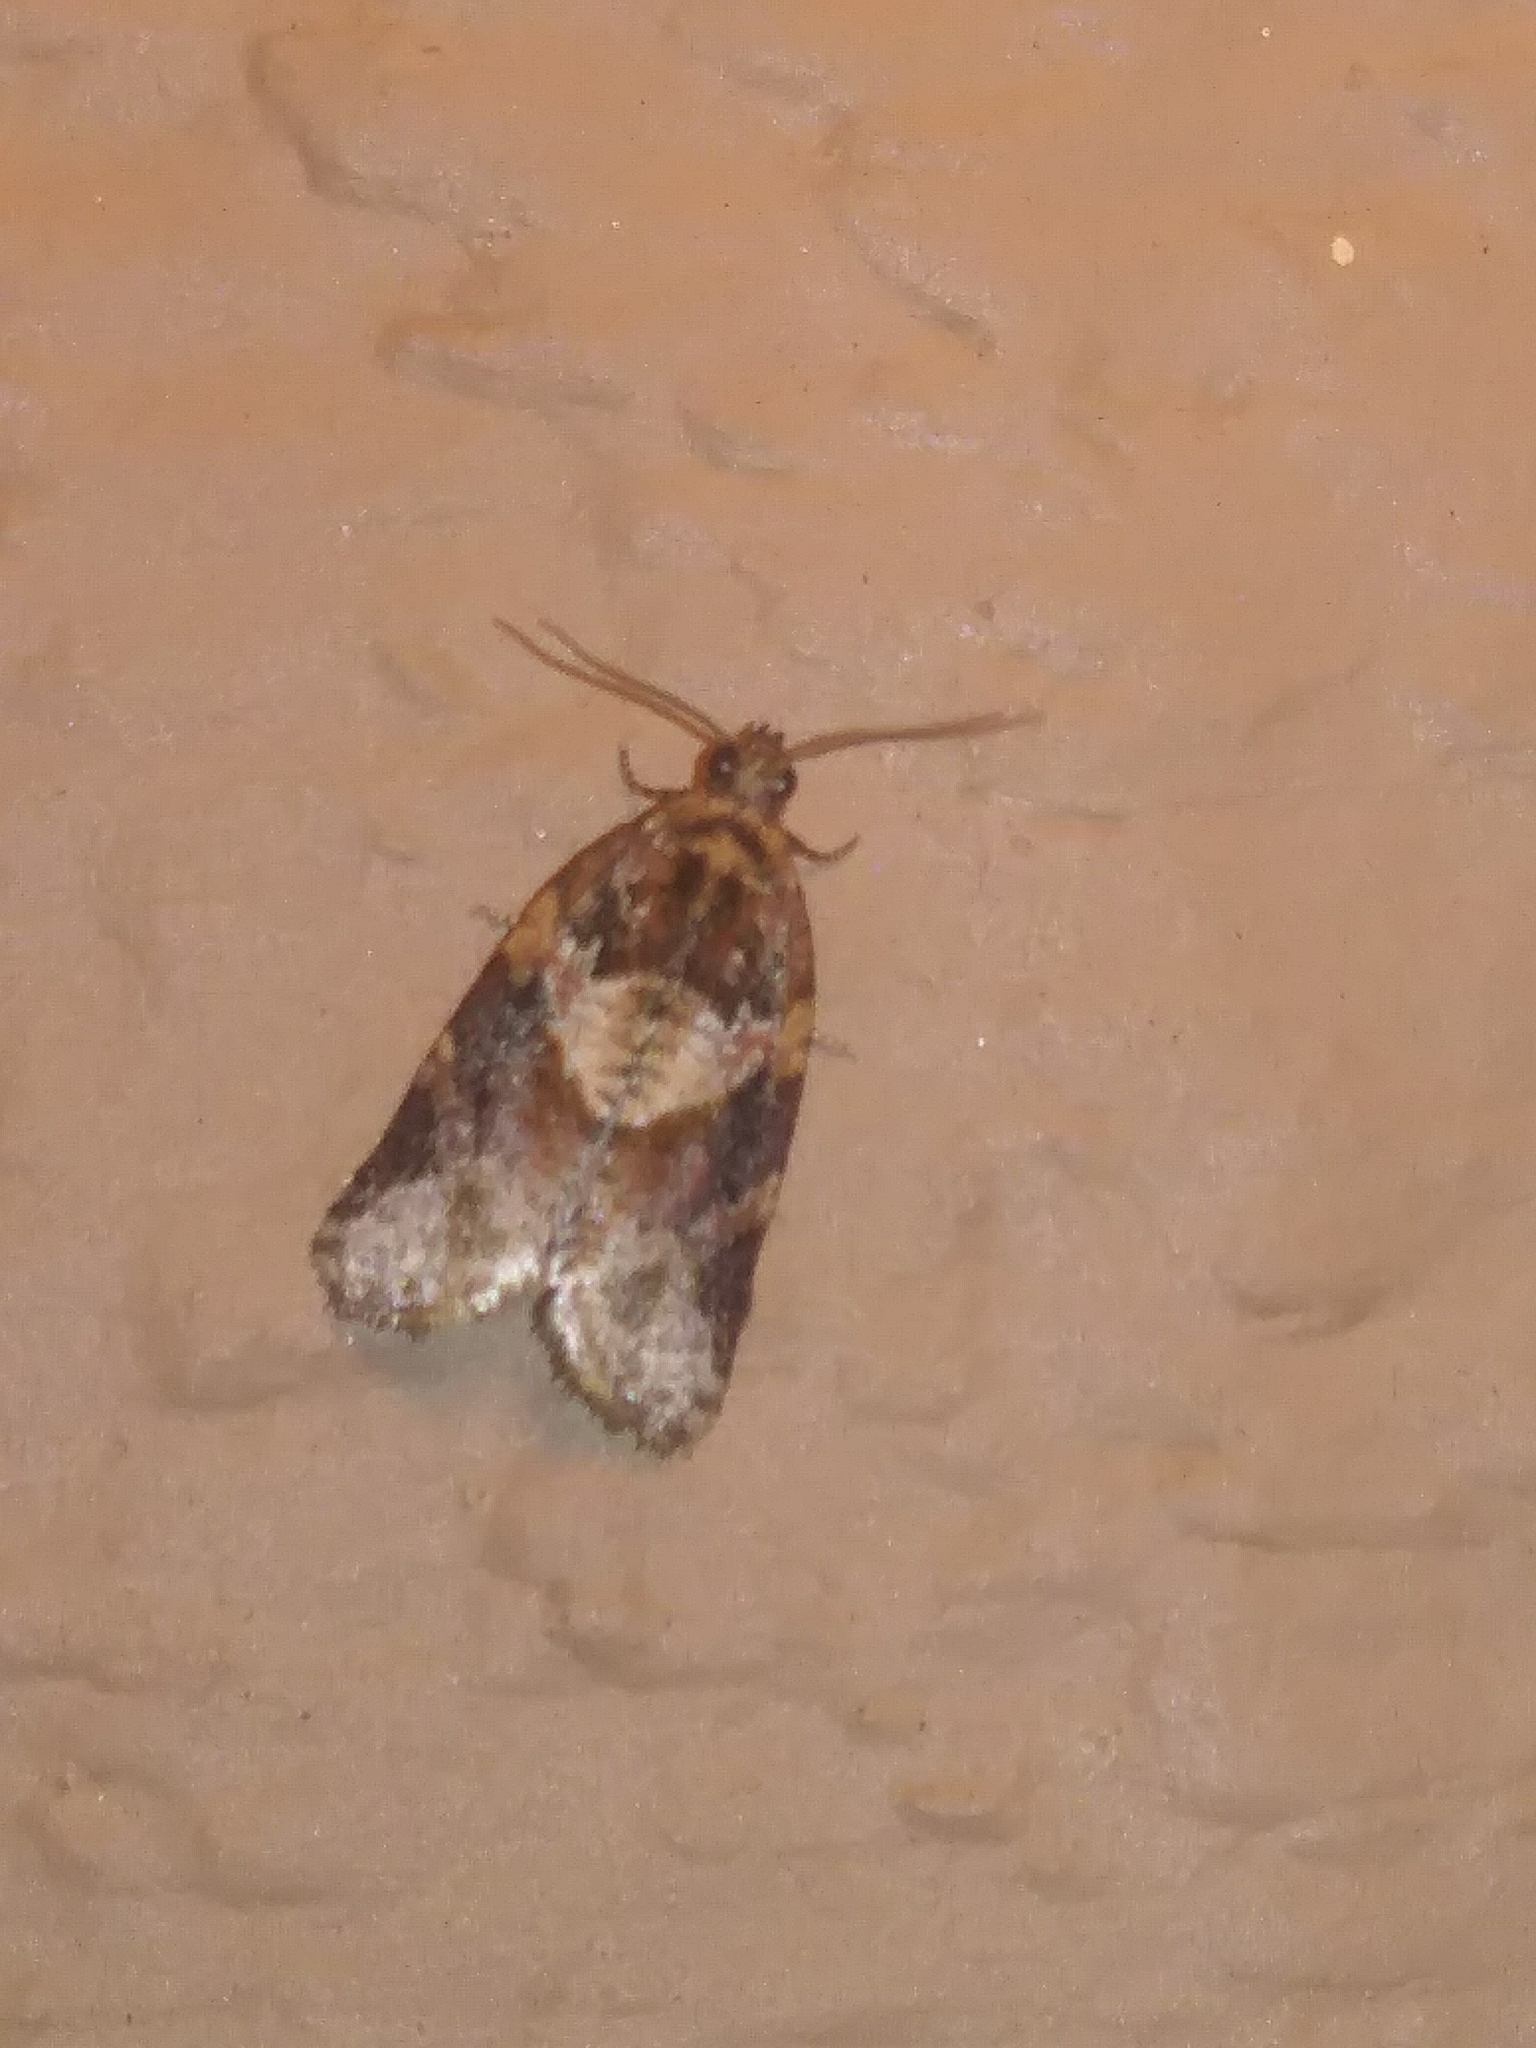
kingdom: Animalia
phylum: Arthropoda
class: Insecta
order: Lepidoptera
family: Tortricidae
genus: Argyrotaenia
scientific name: Argyrotaenia velutinana
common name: Red-banded leafroller moth
